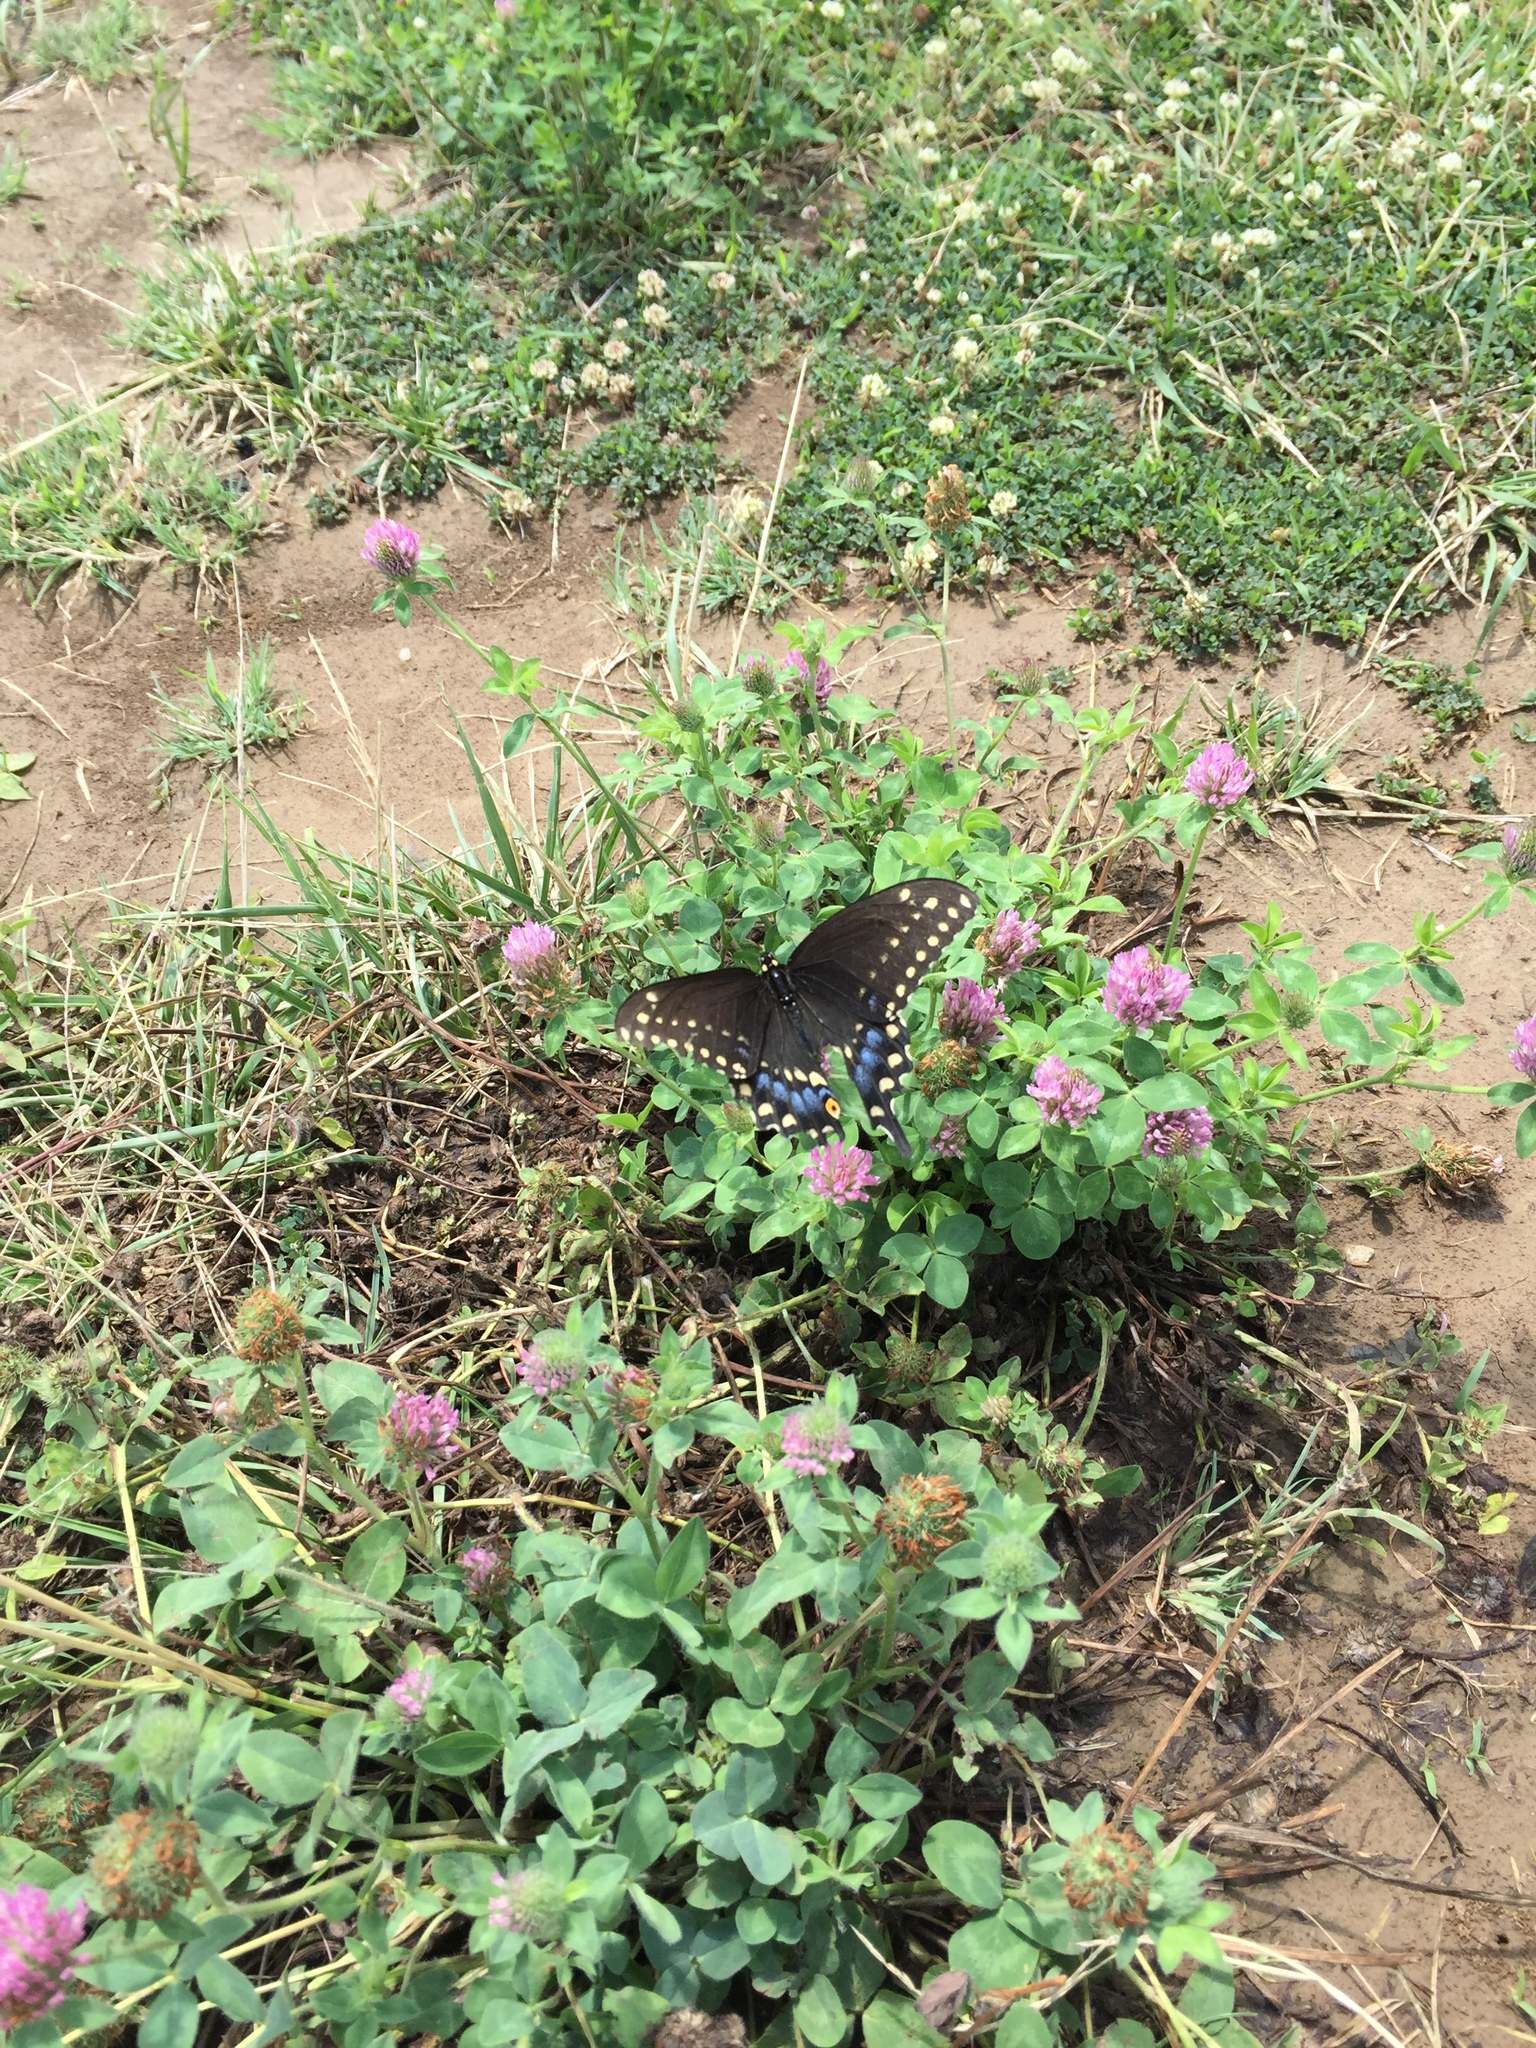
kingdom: Animalia
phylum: Arthropoda
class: Insecta
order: Lepidoptera
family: Papilionidae
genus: Papilio
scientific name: Papilio polyxenes
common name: Black swallowtail
